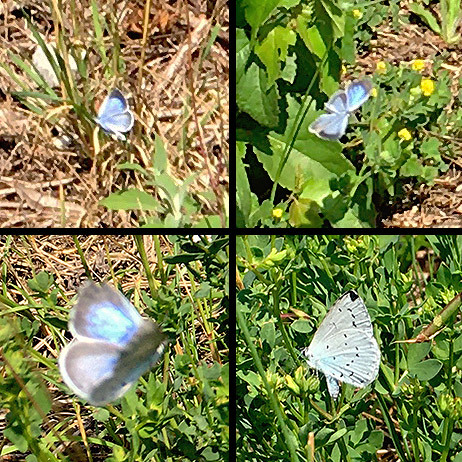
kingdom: Animalia
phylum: Arthropoda
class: Insecta
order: Lepidoptera
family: Lycaenidae
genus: Celastrina
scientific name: Celastrina argiolus
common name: Holly blue
